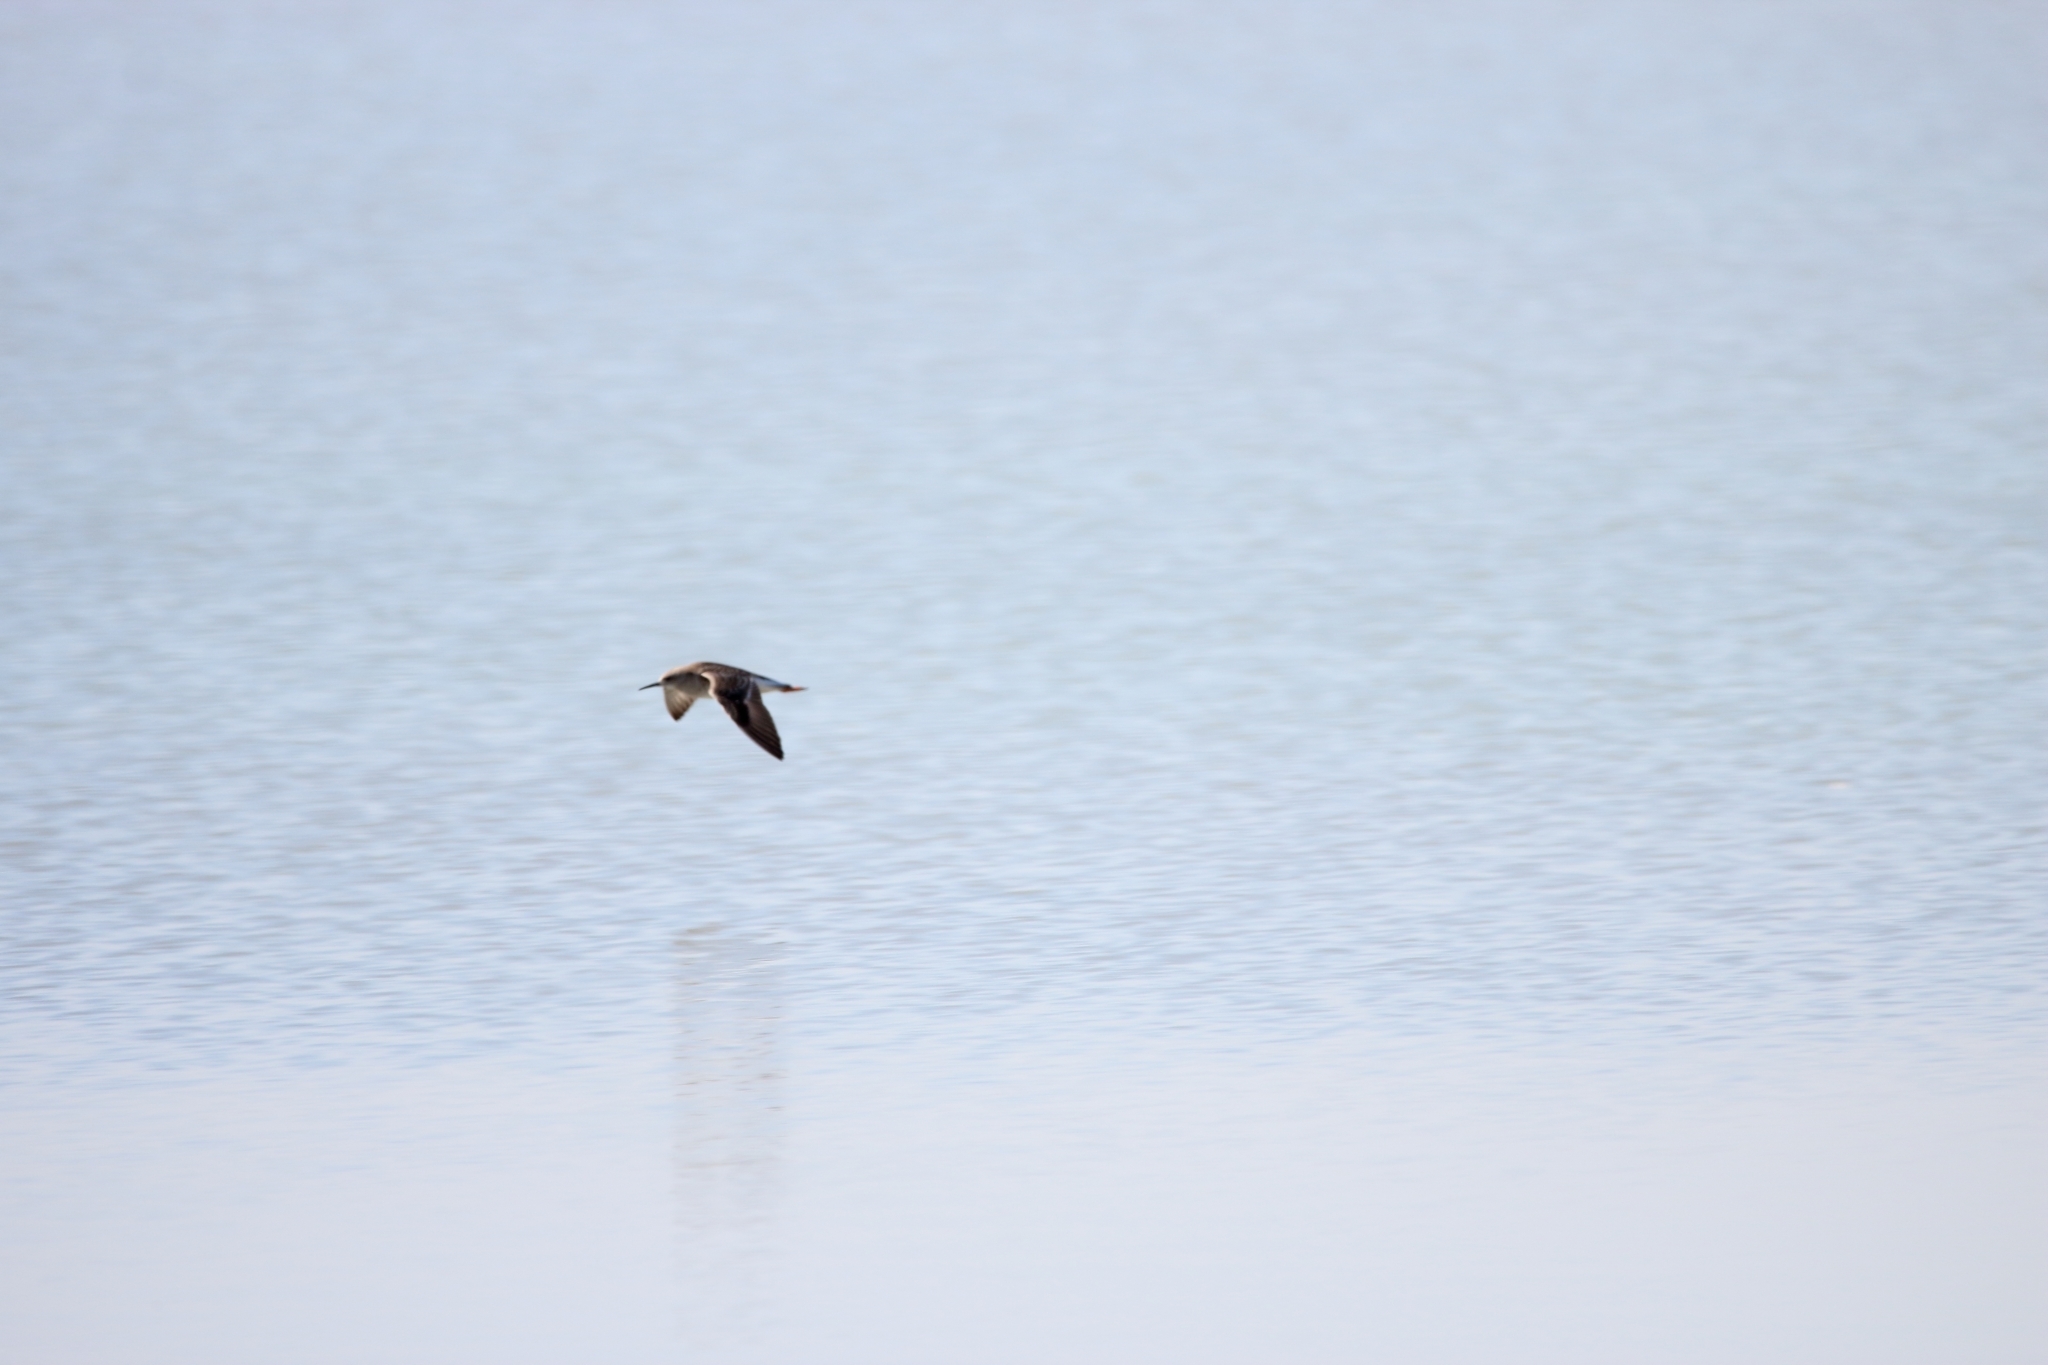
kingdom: Animalia
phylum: Chordata
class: Aves
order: Charadriiformes
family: Scolopacidae
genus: Calidris
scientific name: Calidris pugnax
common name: Ruff
